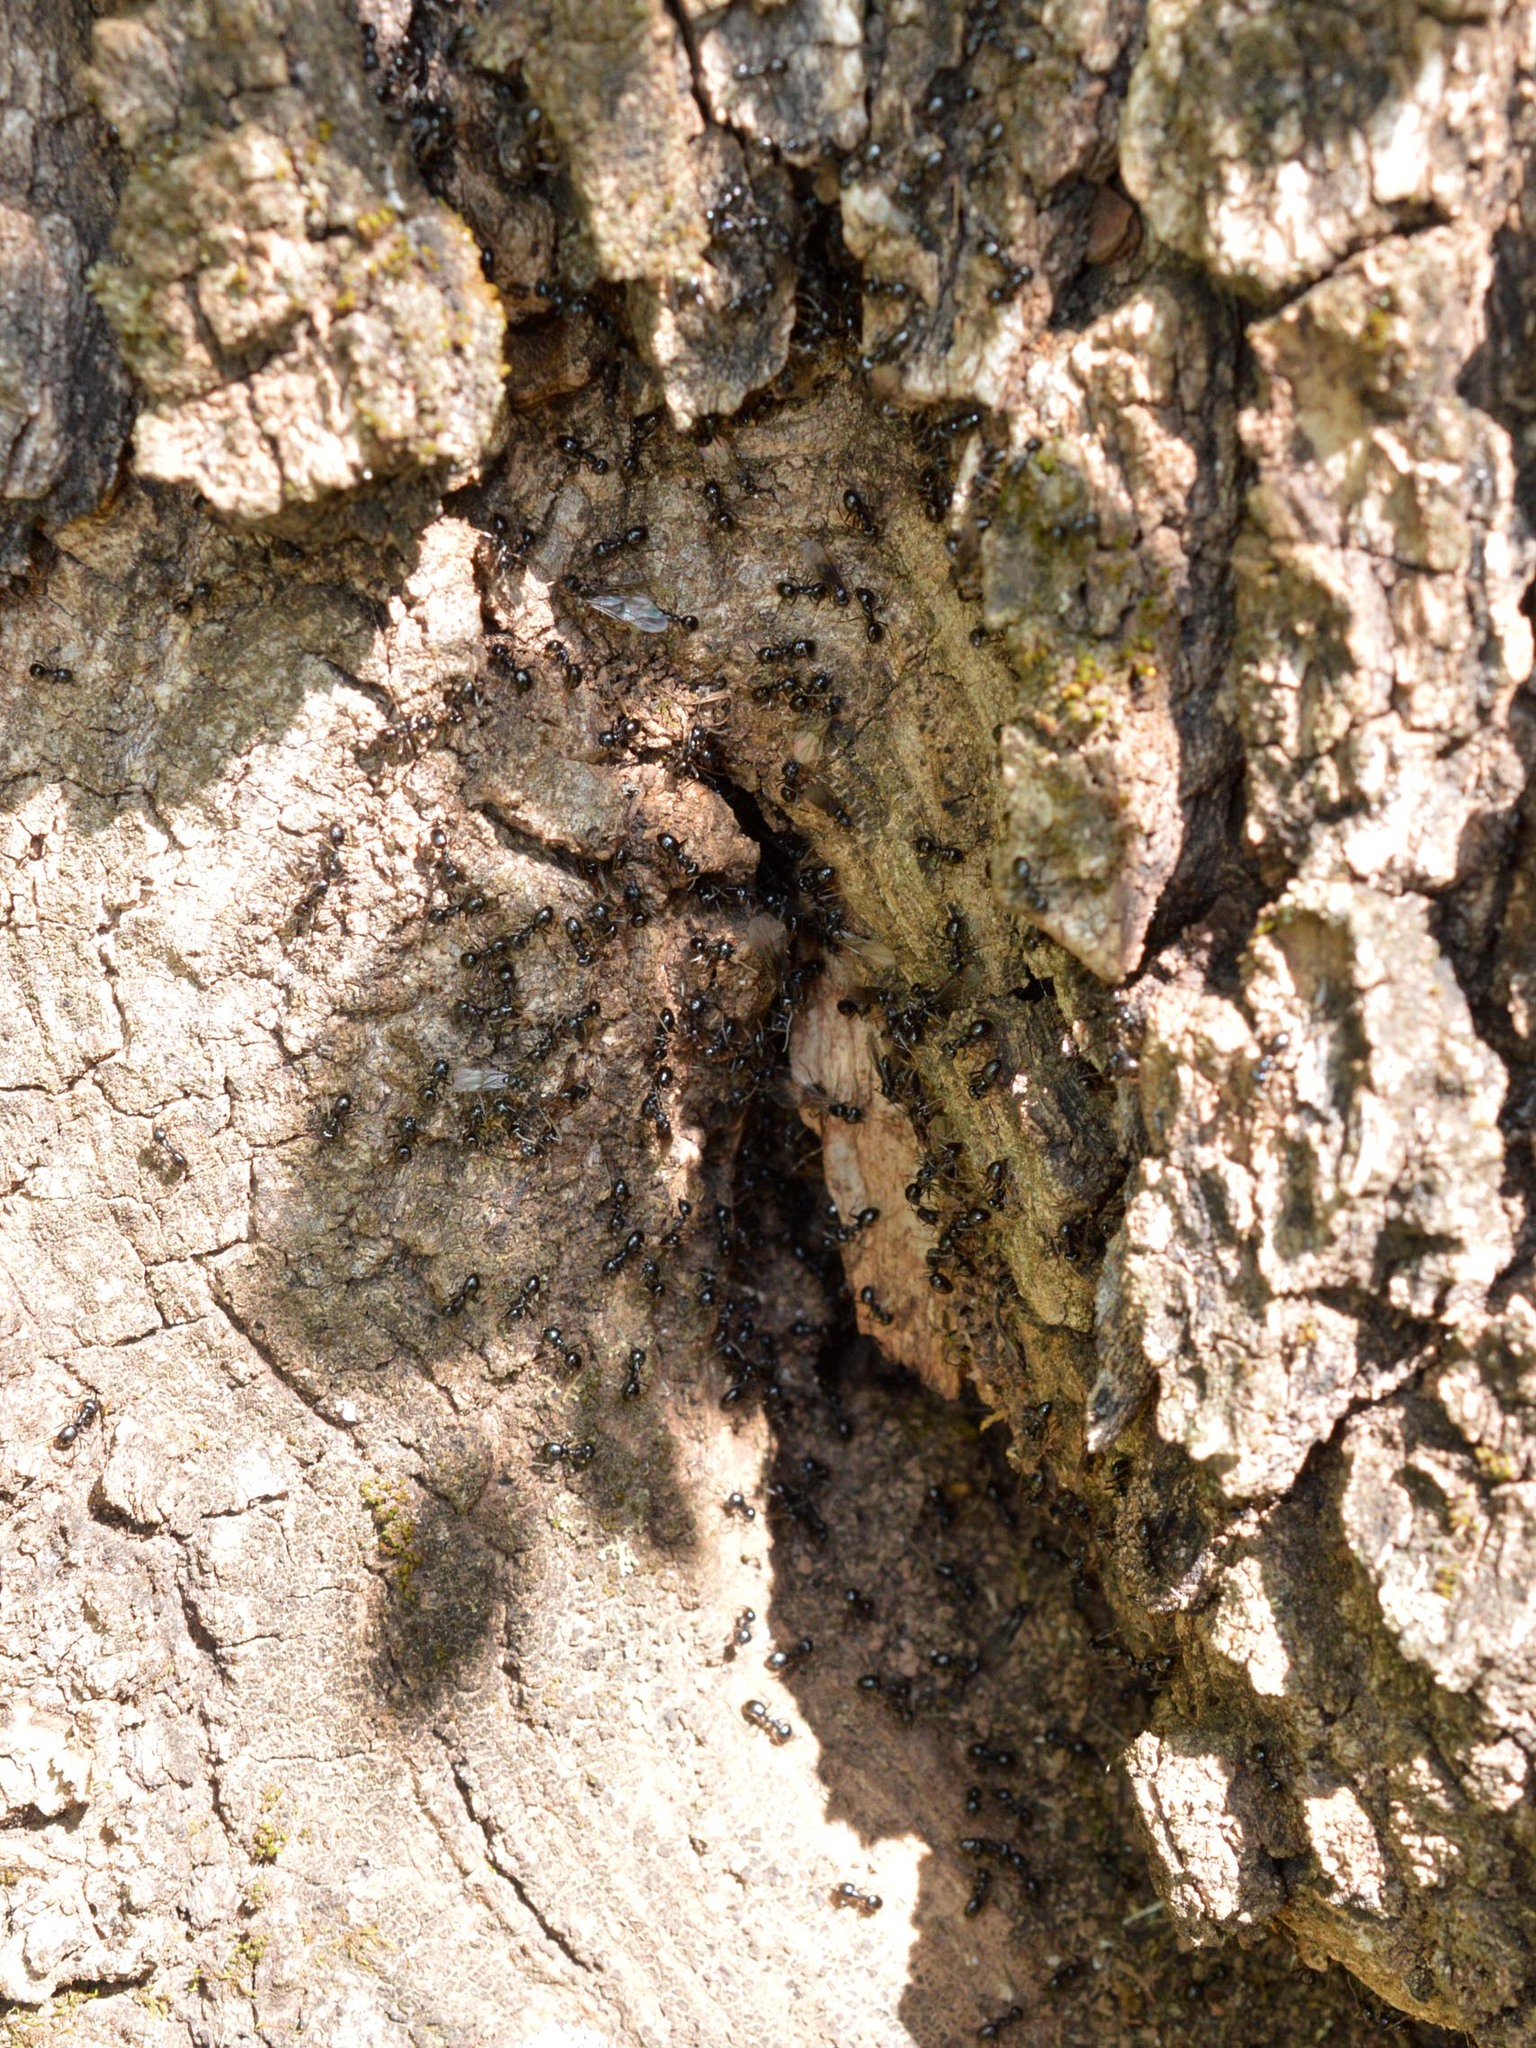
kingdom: Animalia
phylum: Arthropoda
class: Insecta
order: Hymenoptera
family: Formicidae
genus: Lasius
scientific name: Lasius fuliginosus
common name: Jet ant
